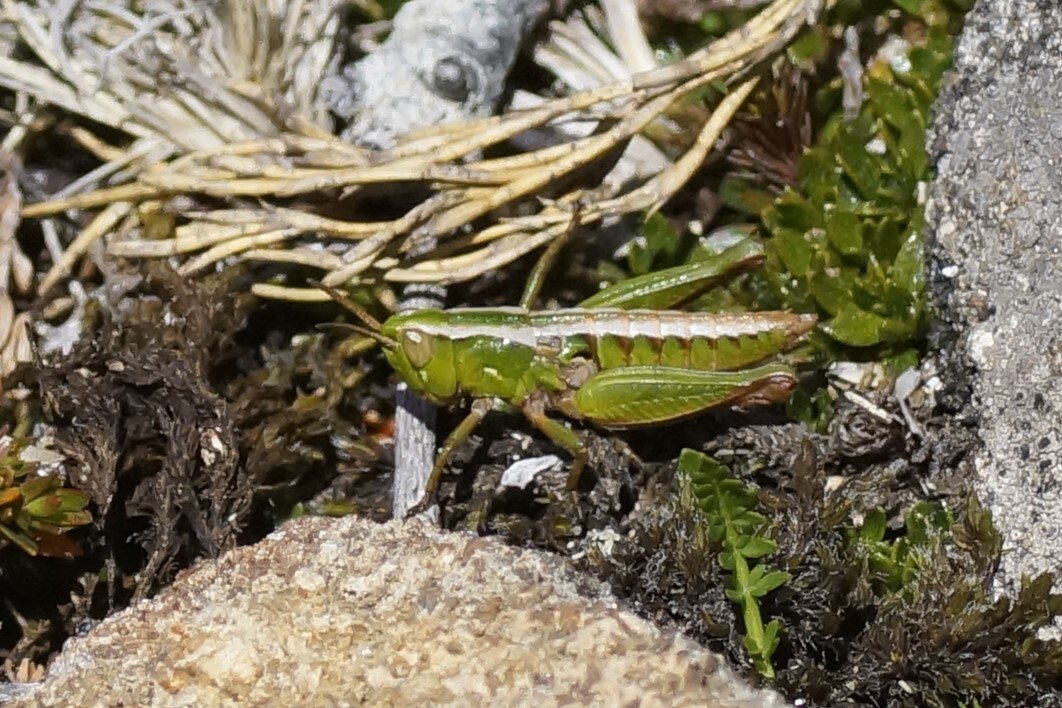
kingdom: Animalia
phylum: Arthropoda
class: Insecta
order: Orthoptera
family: Acrididae
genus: Russalpia
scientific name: Russalpia albertisi
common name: Tassie hopper
